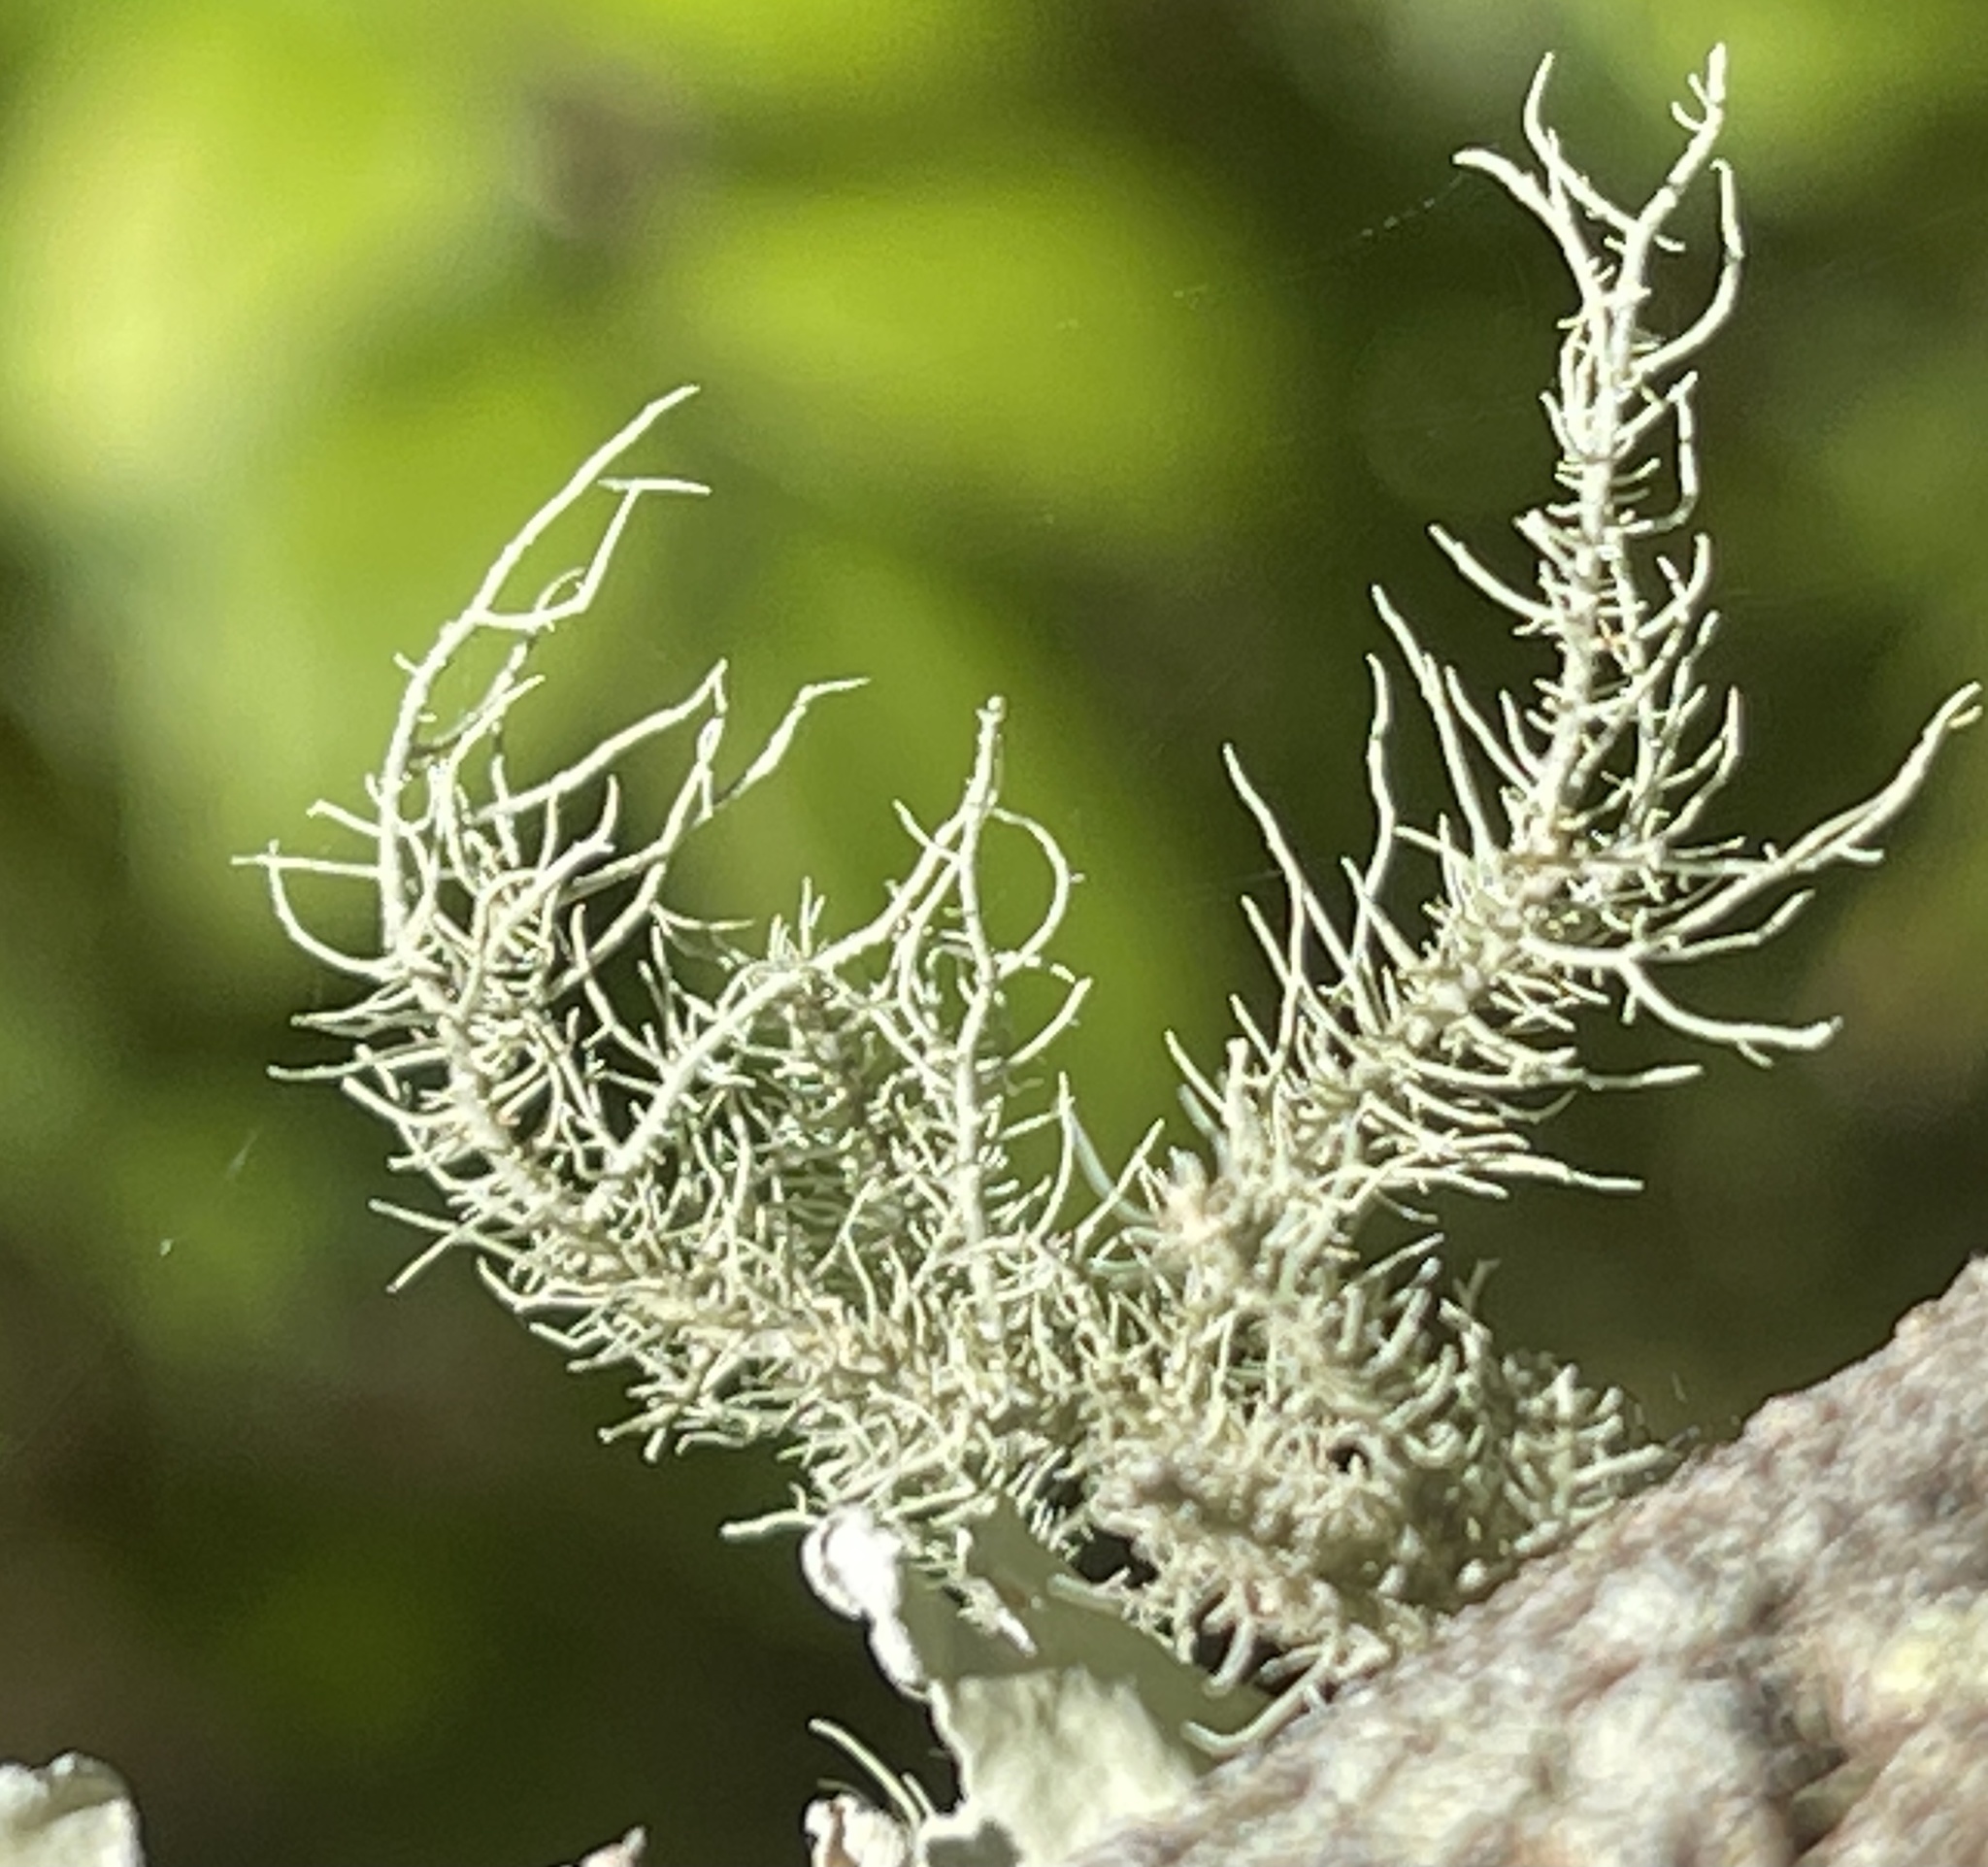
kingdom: Fungi
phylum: Ascomycota
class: Lecanoromycetes
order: Lecanorales
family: Parmeliaceae
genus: Usnea
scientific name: Usnea strigosa
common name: Bushy beard lichen
